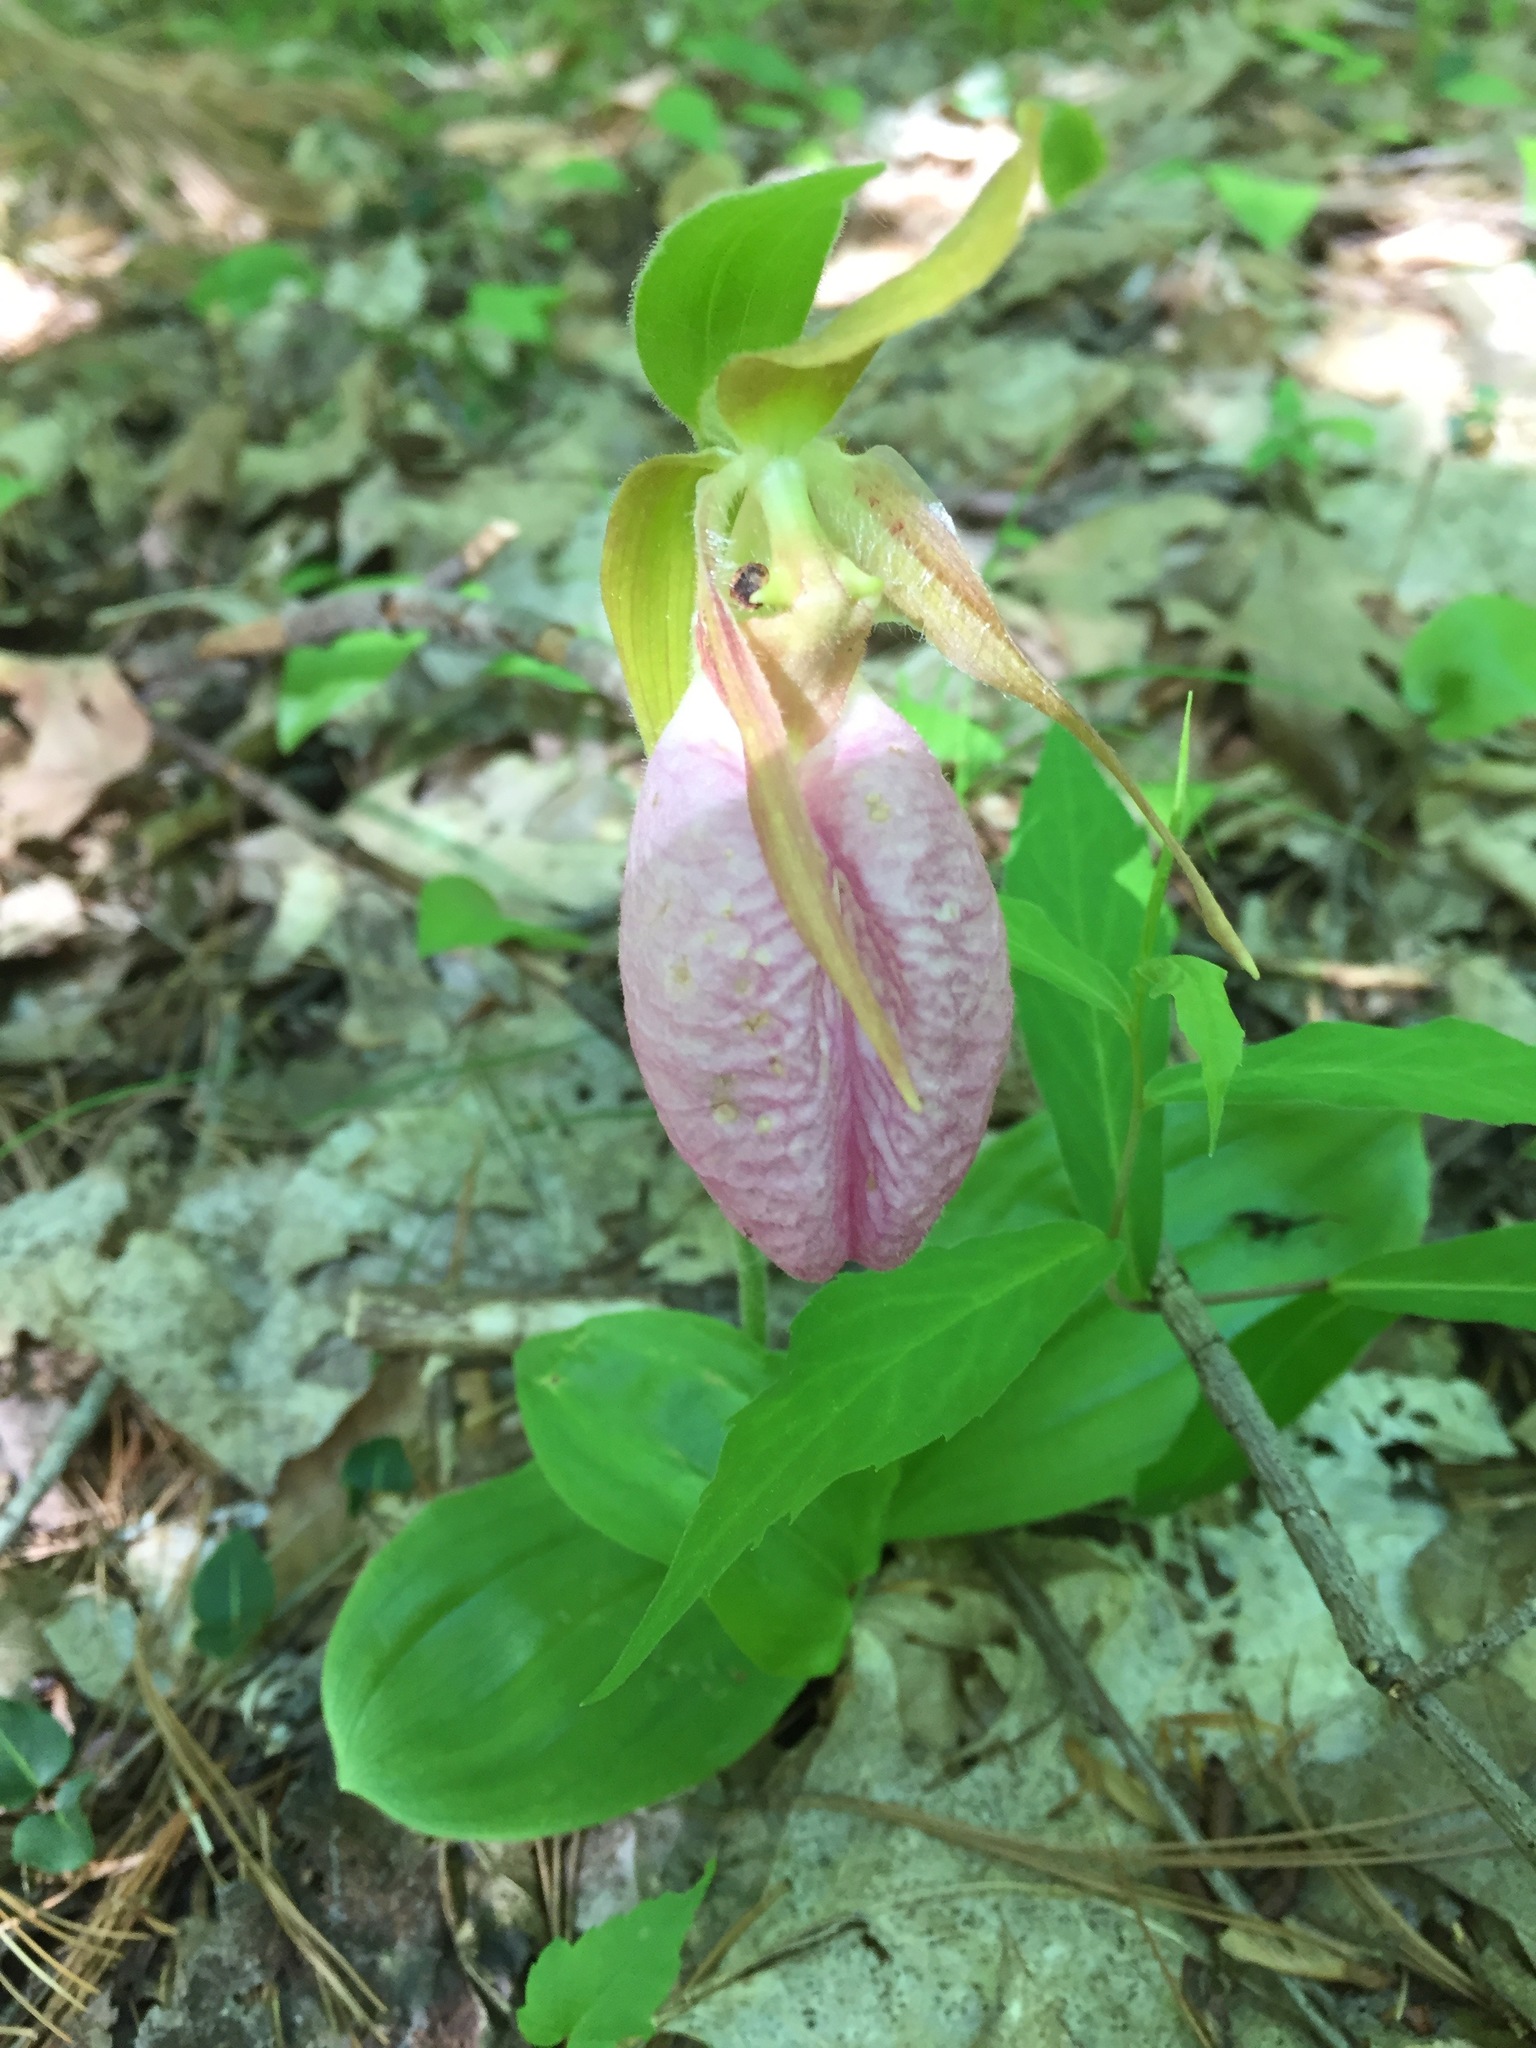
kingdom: Plantae
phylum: Tracheophyta
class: Liliopsida
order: Asparagales
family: Orchidaceae
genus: Cypripedium
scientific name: Cypripedium acaule
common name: Pink lady's-slipper
